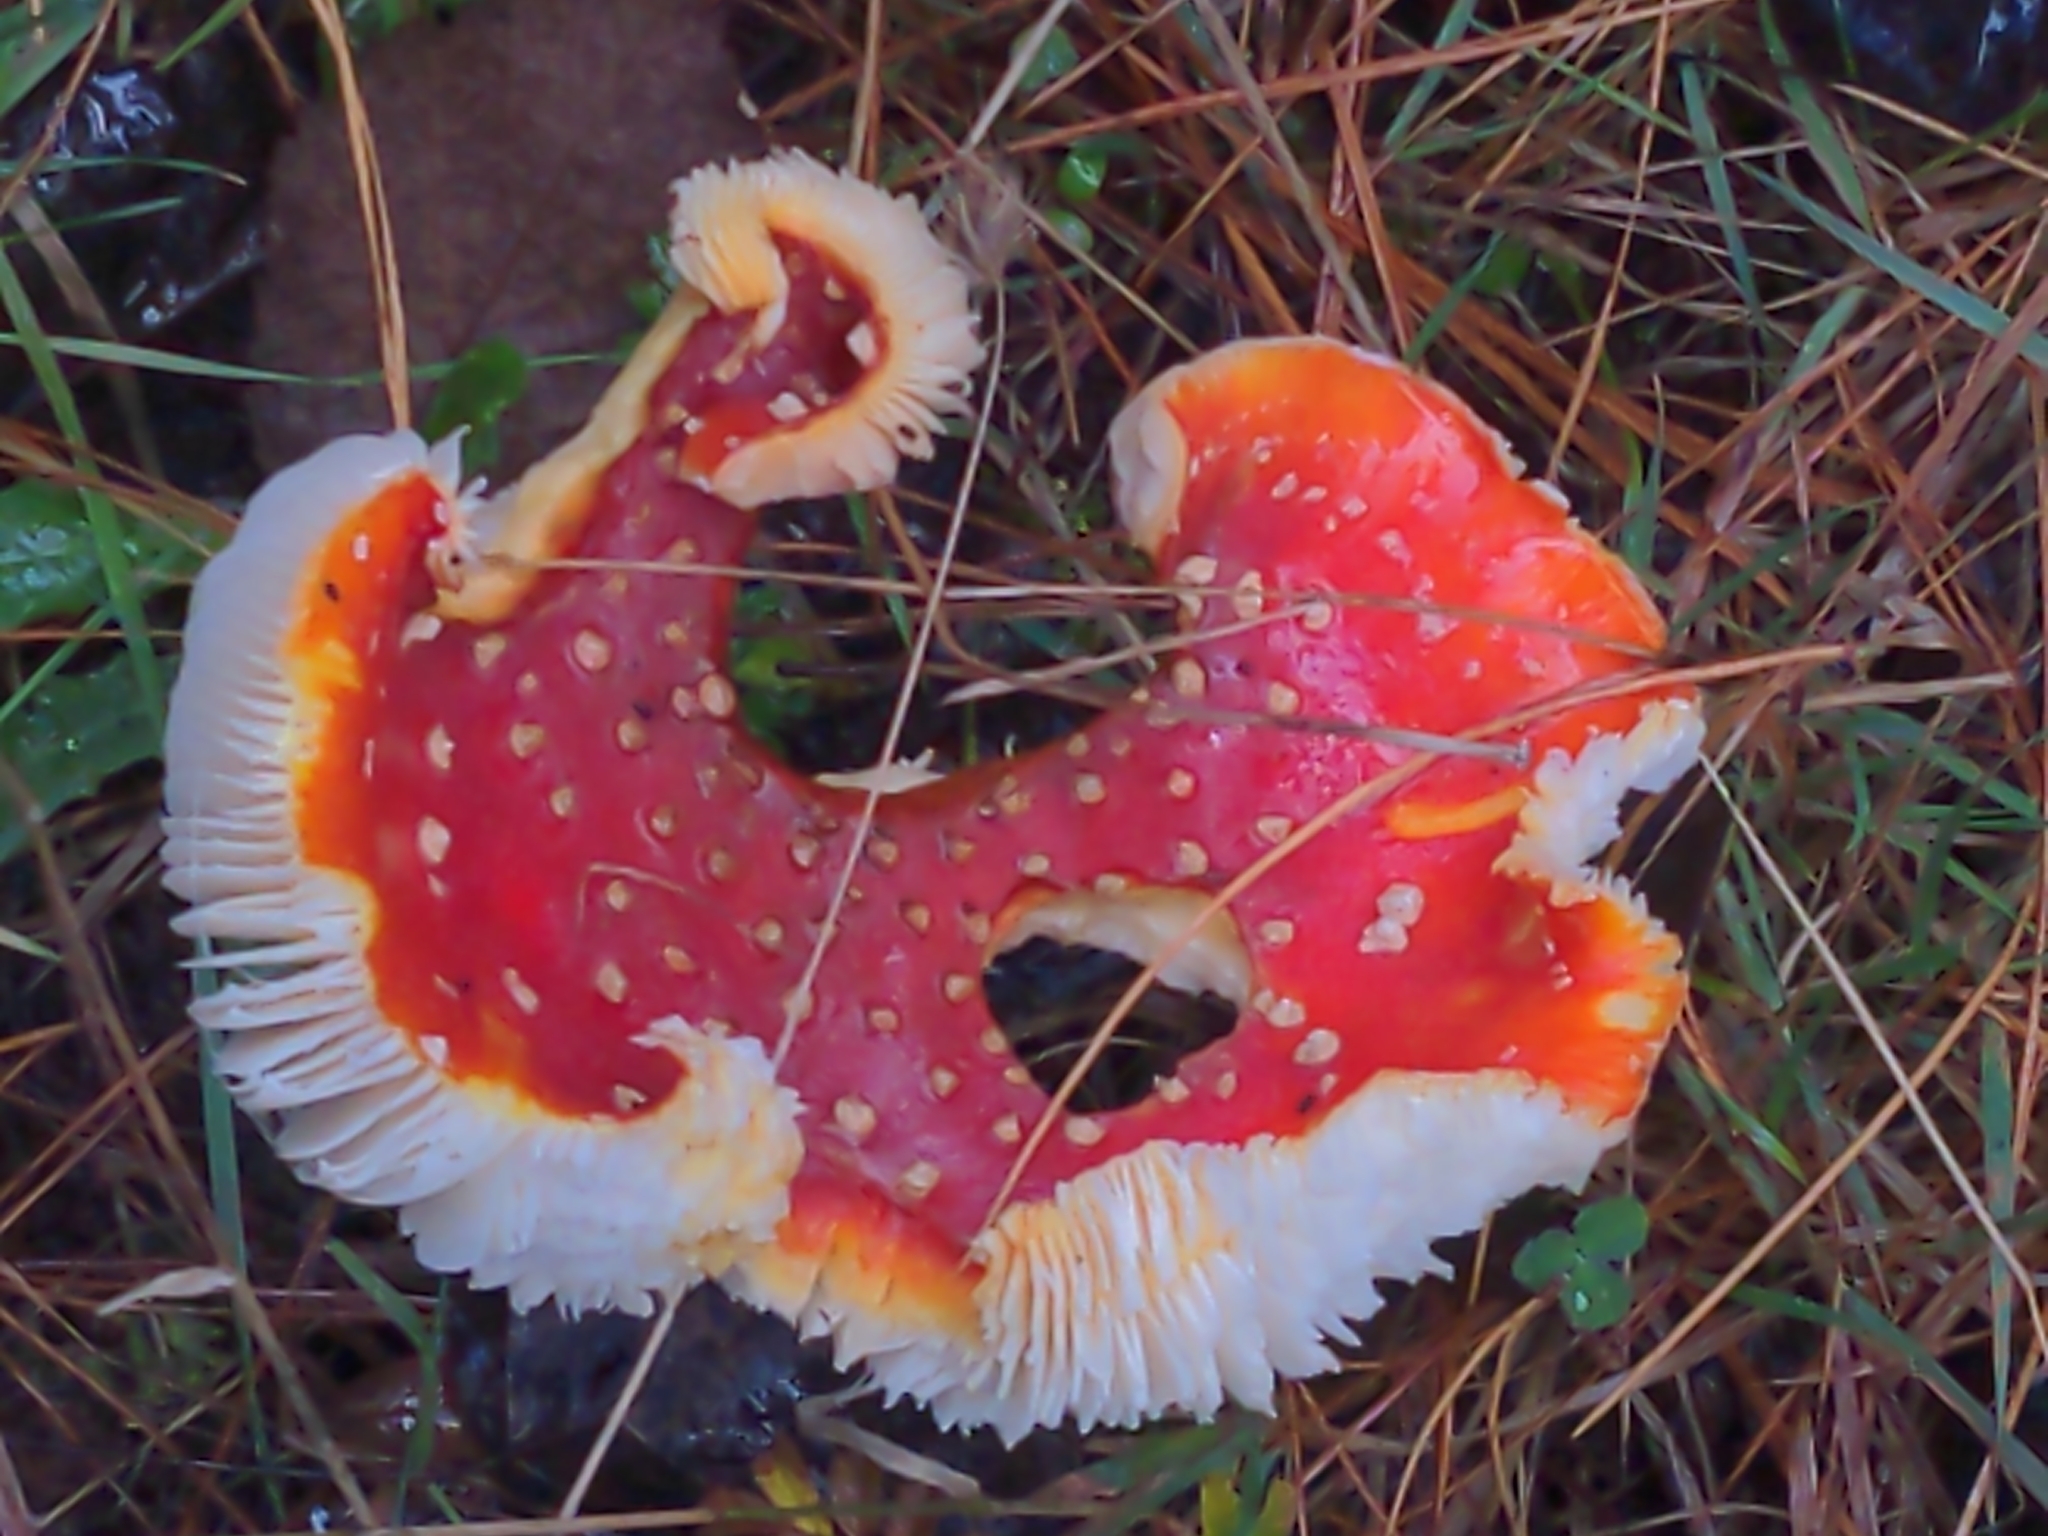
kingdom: Fungi
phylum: Basidiomycota
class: Agaricomycetes
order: Agaricales
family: Amanitaceae
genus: Amanita
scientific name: Amanita muscaria
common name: Fly agaric
